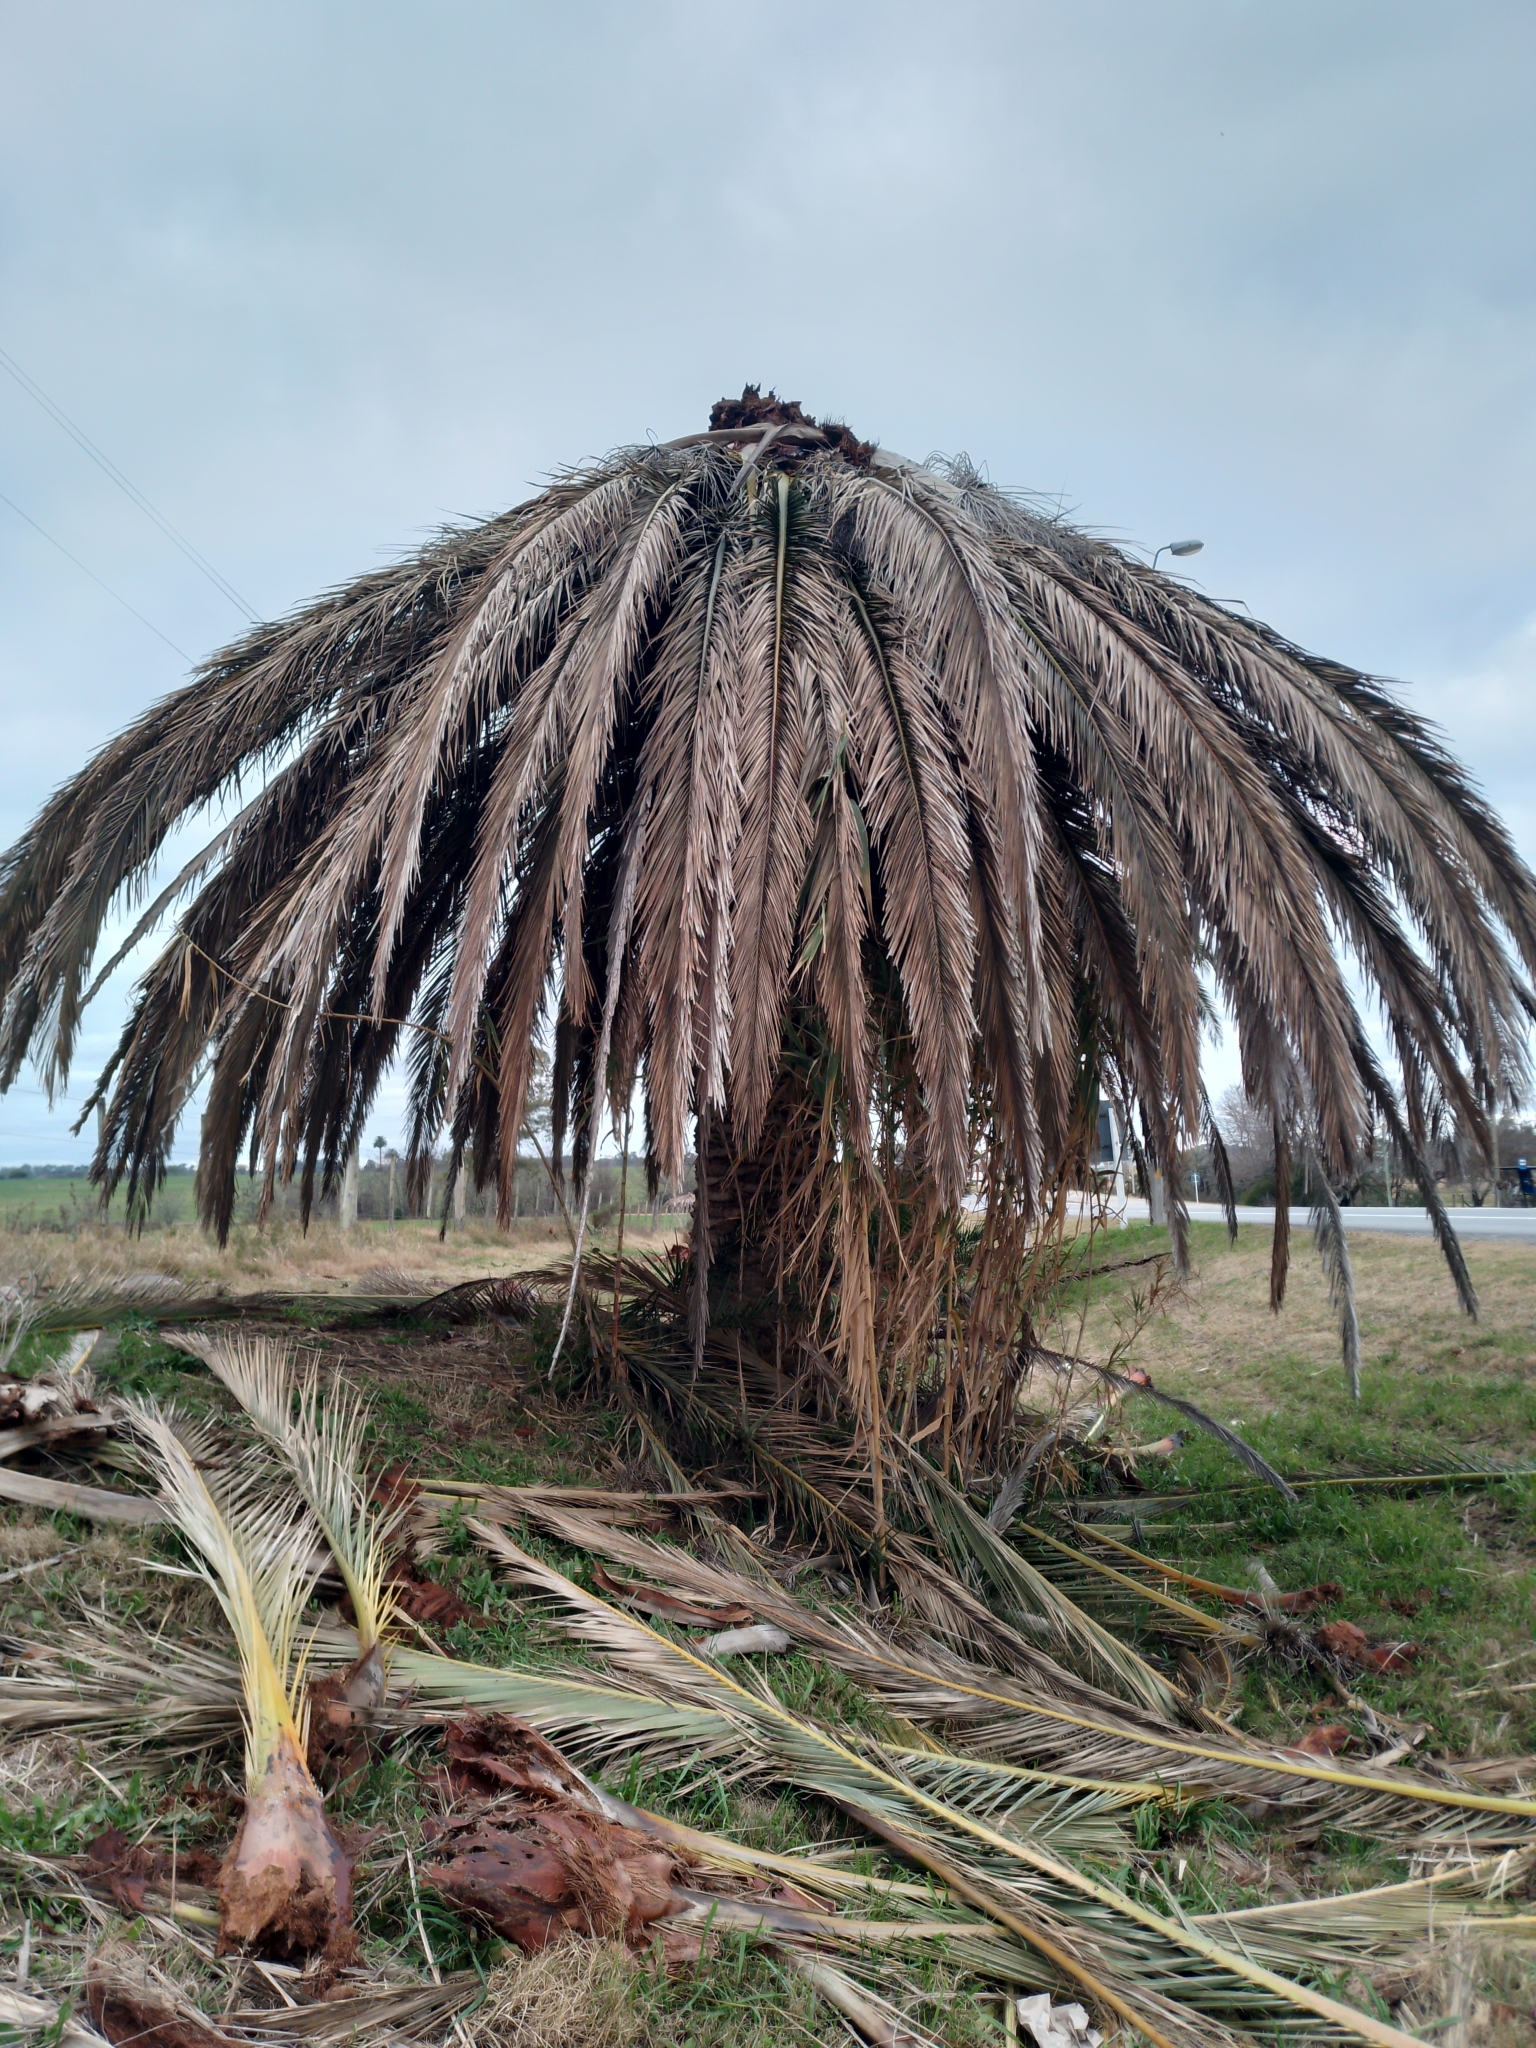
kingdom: Plantae
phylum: Tracheophyta
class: Liliopsida
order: Arecales
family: Arecaceae
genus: Phoenix
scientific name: Phoenix canariensis
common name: Canary island date palm
